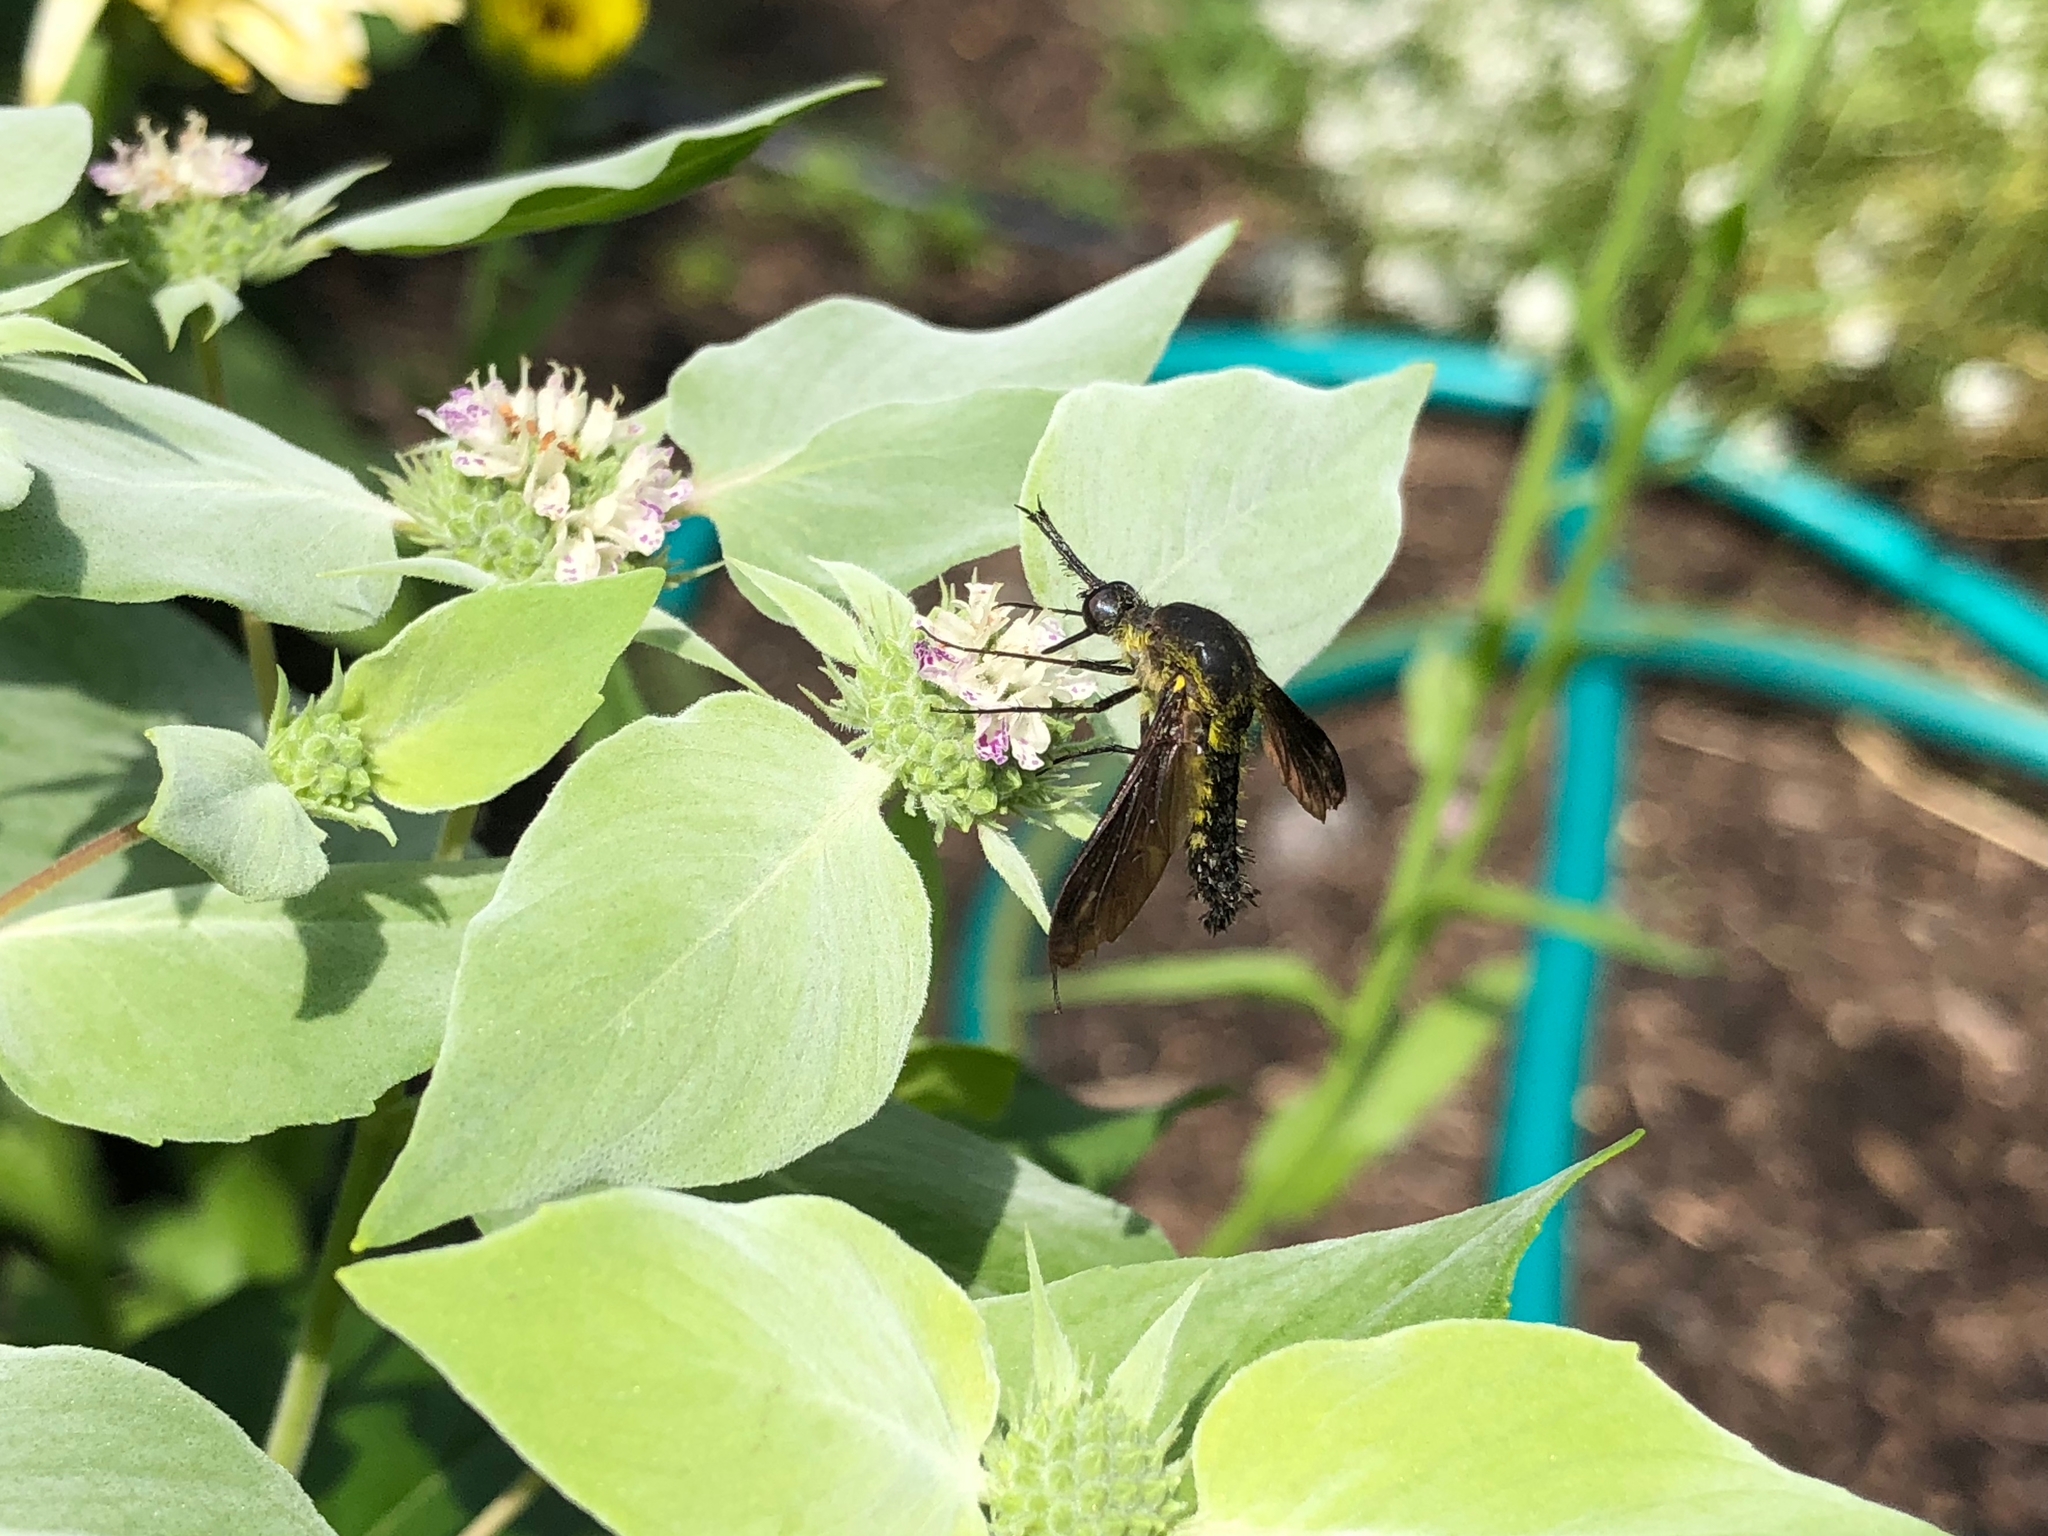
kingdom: Animalia
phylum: Arthropoda
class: Insecta
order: Diptera
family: Bombyliidae
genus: Lepidophora
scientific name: Lepidophora lutea
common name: Hunchback bee fly
